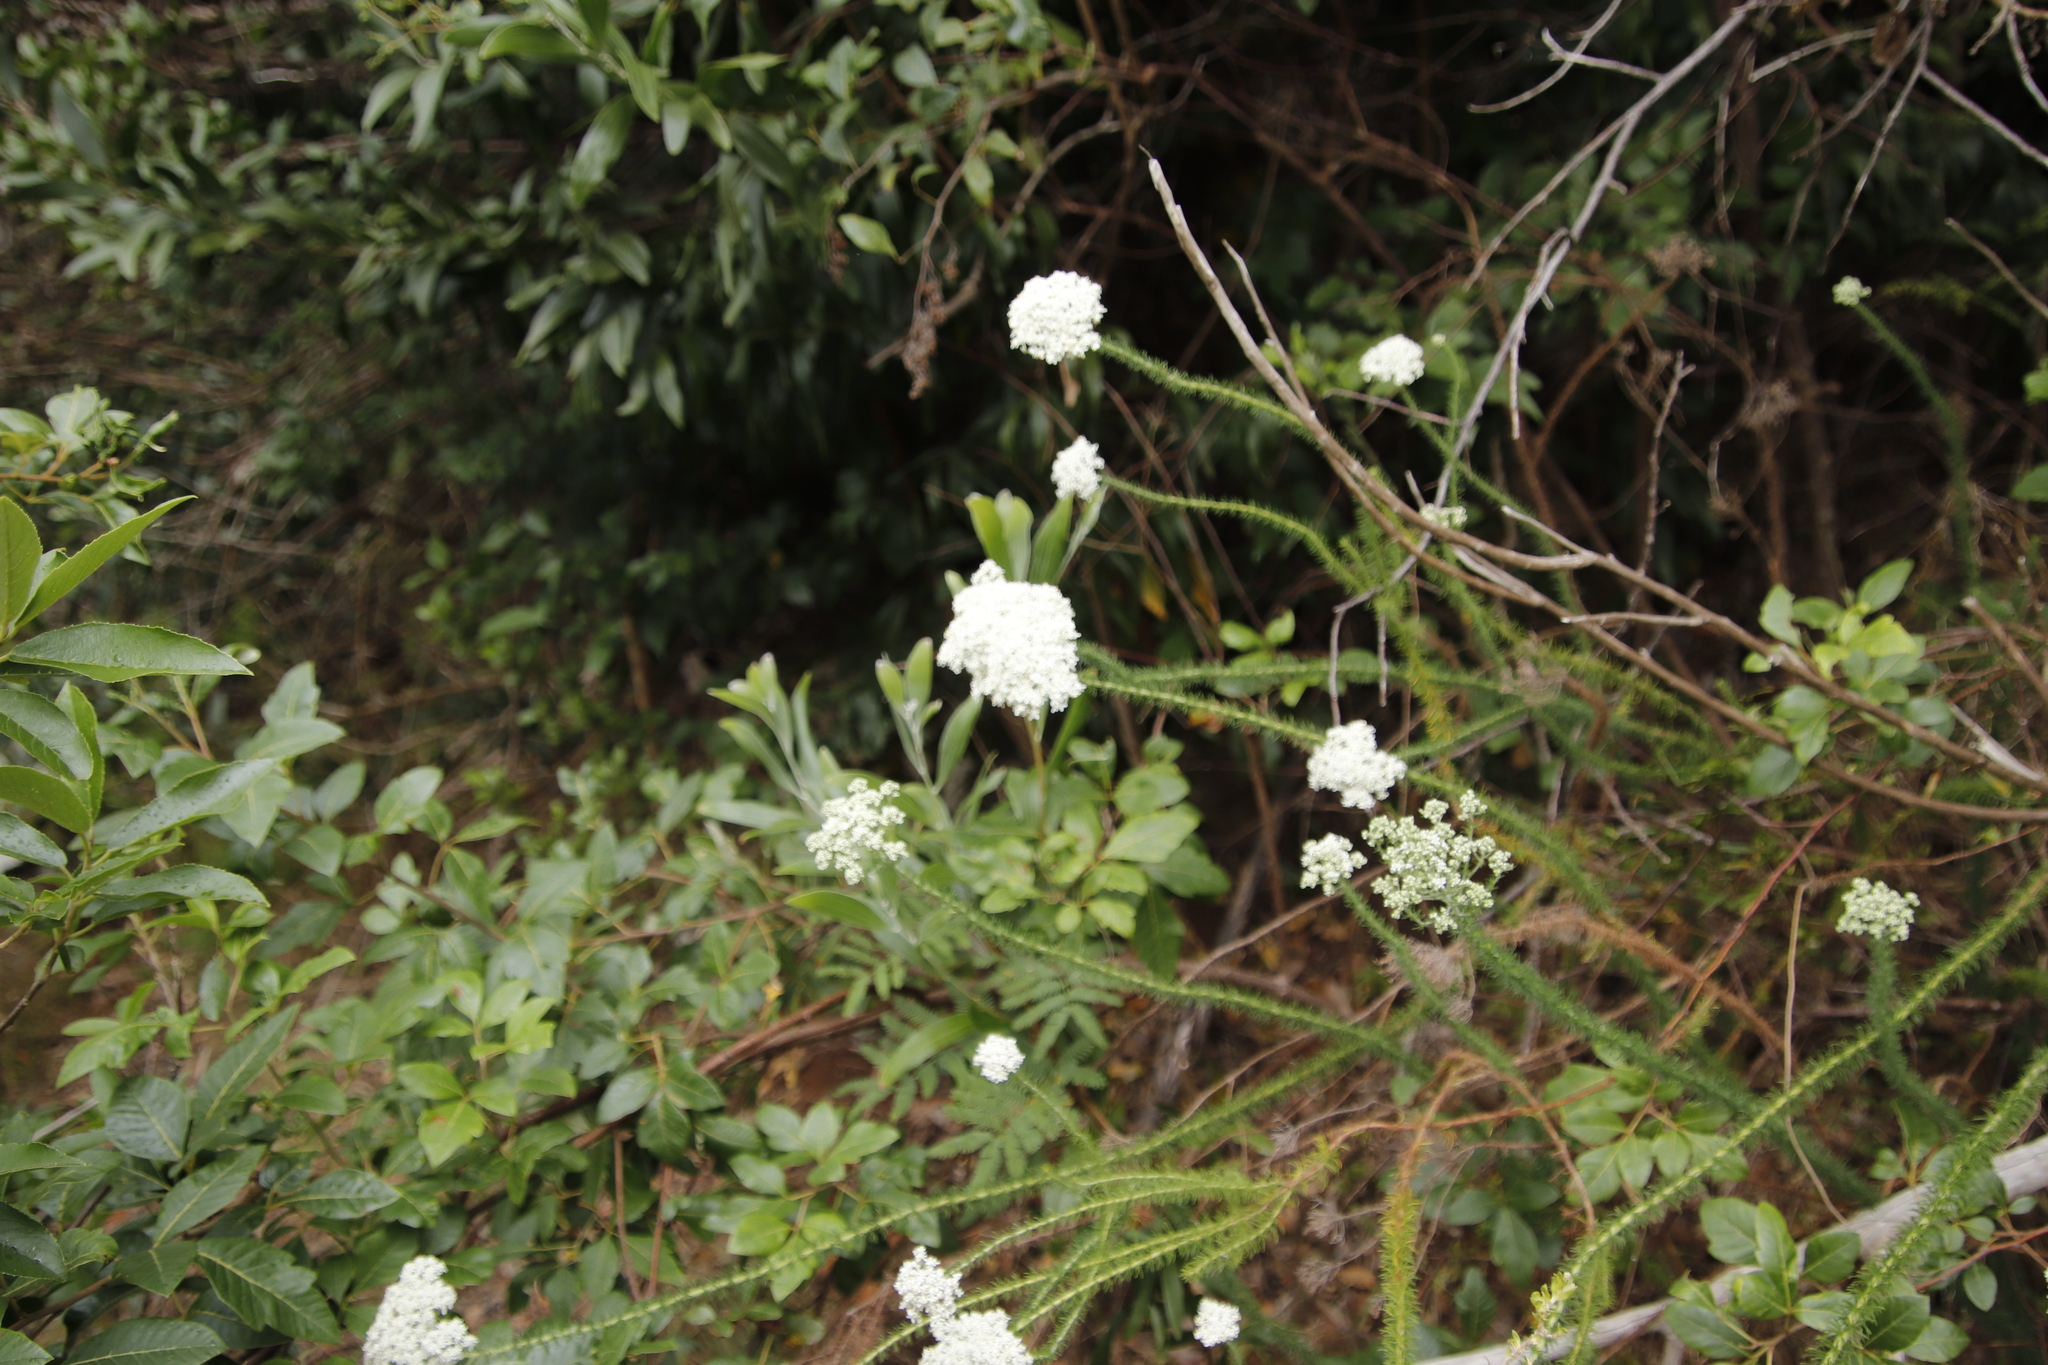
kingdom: Plantae
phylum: Tracheophyta
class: Magnoliopsida
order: Lamiales
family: Scrophulariaceae
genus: Selago
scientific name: Selago corymbosa
